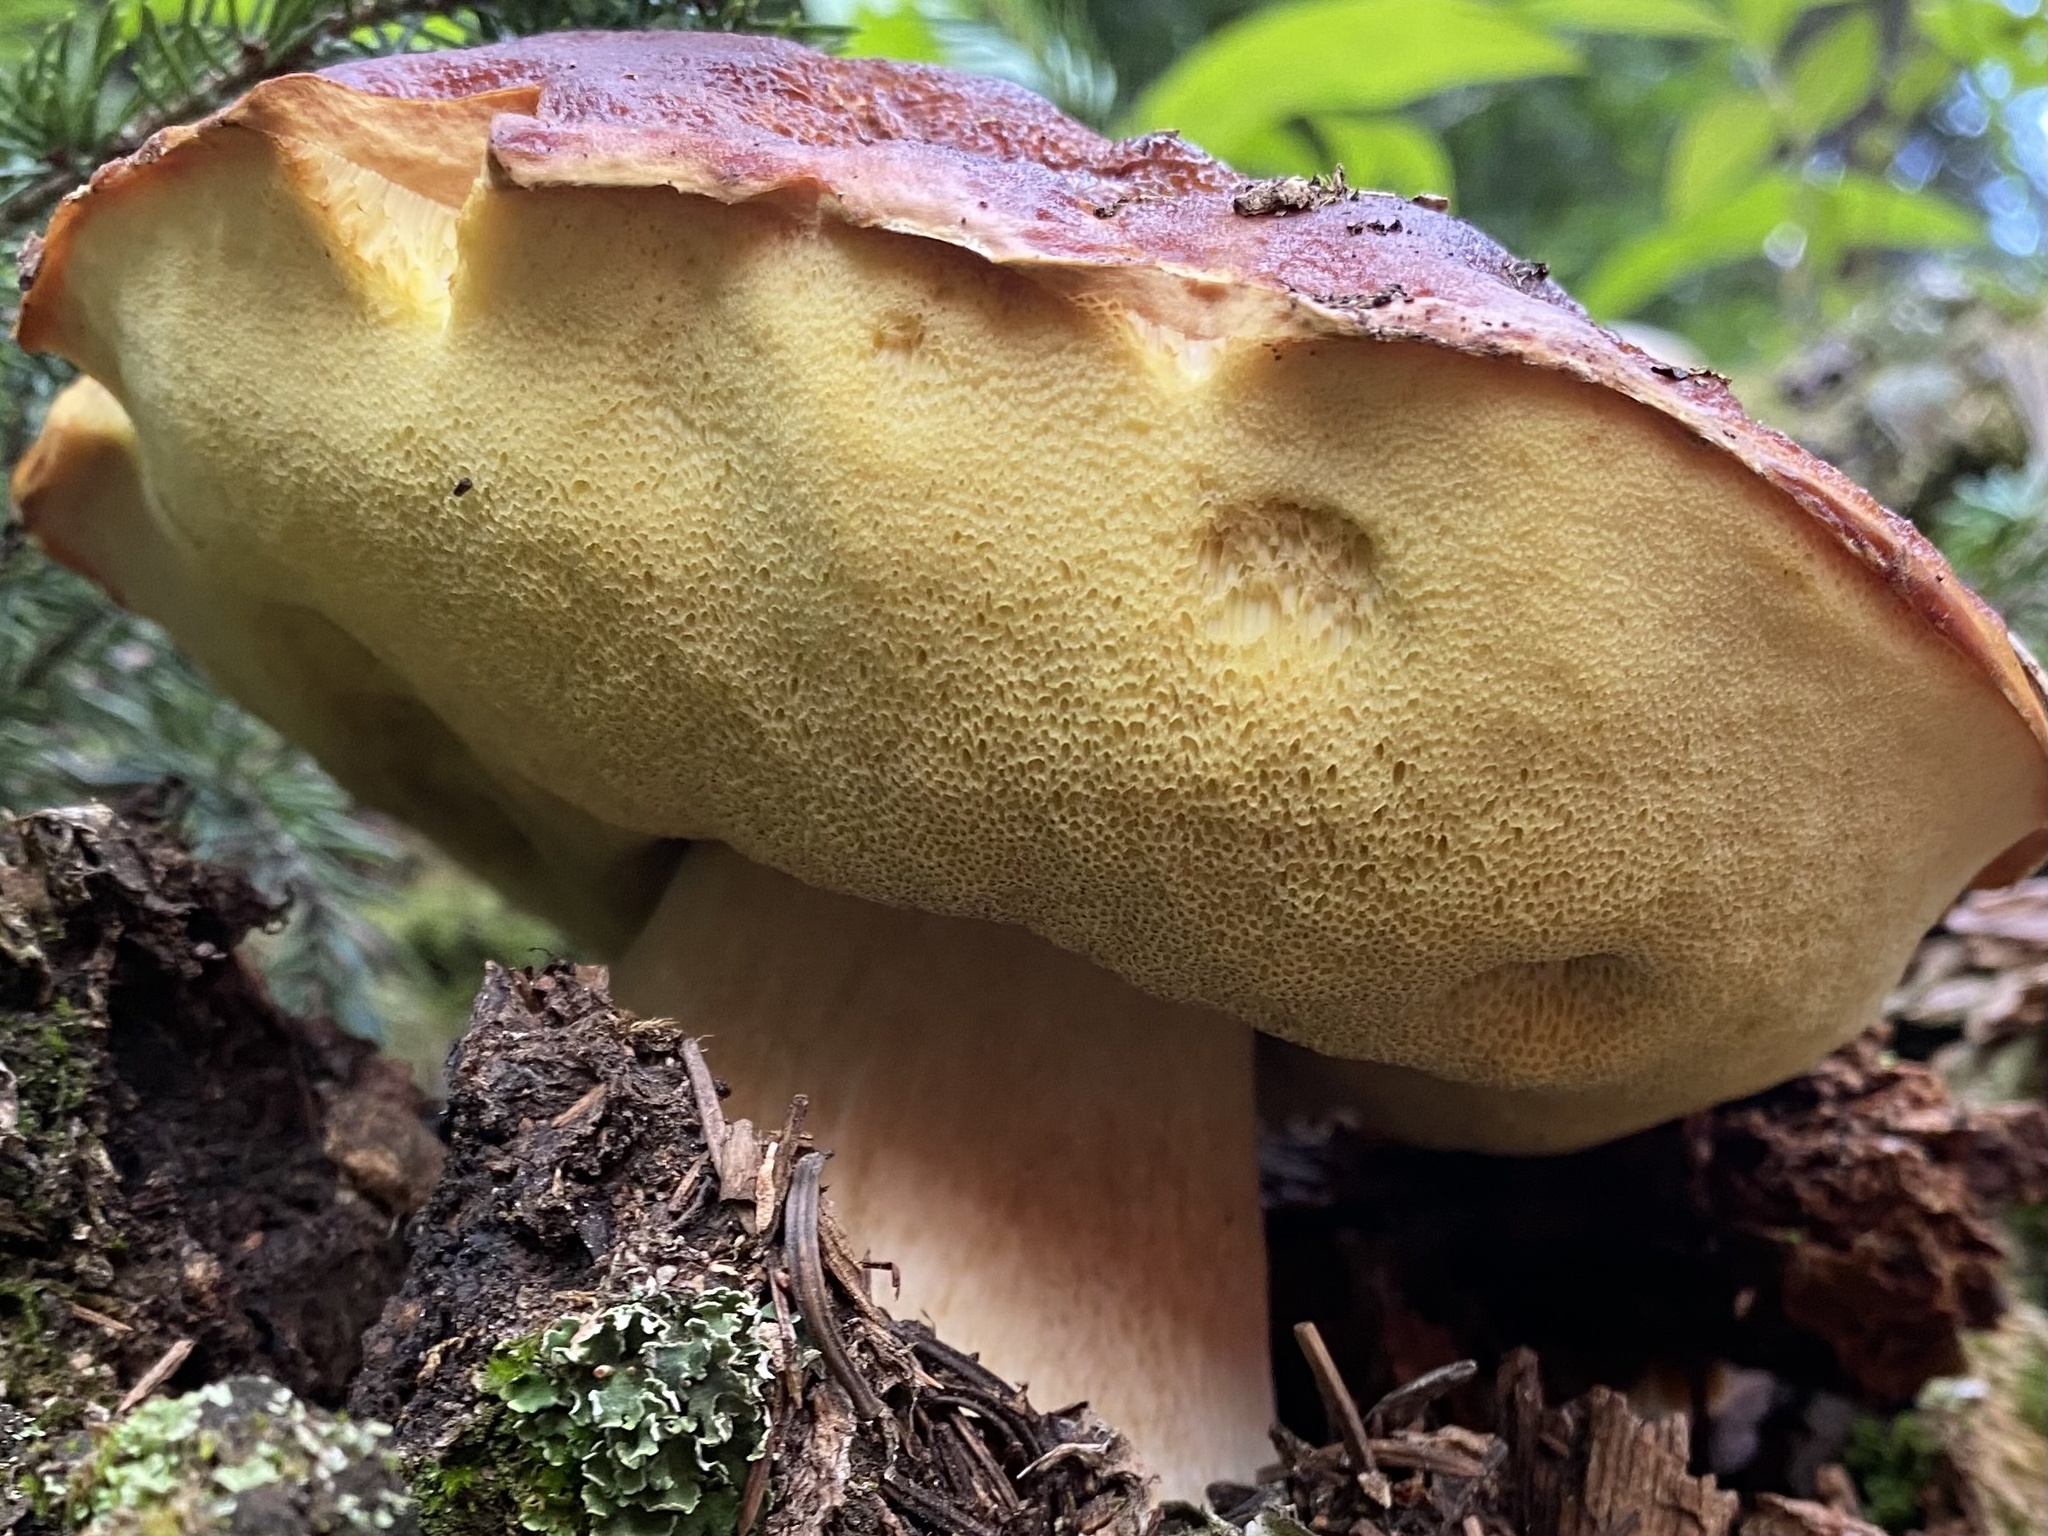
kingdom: Fungi
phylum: Basidiomycota
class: Agaricomycetes
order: Boletales
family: Boletaceae
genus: Boletus
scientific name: Boletus rubriceps
